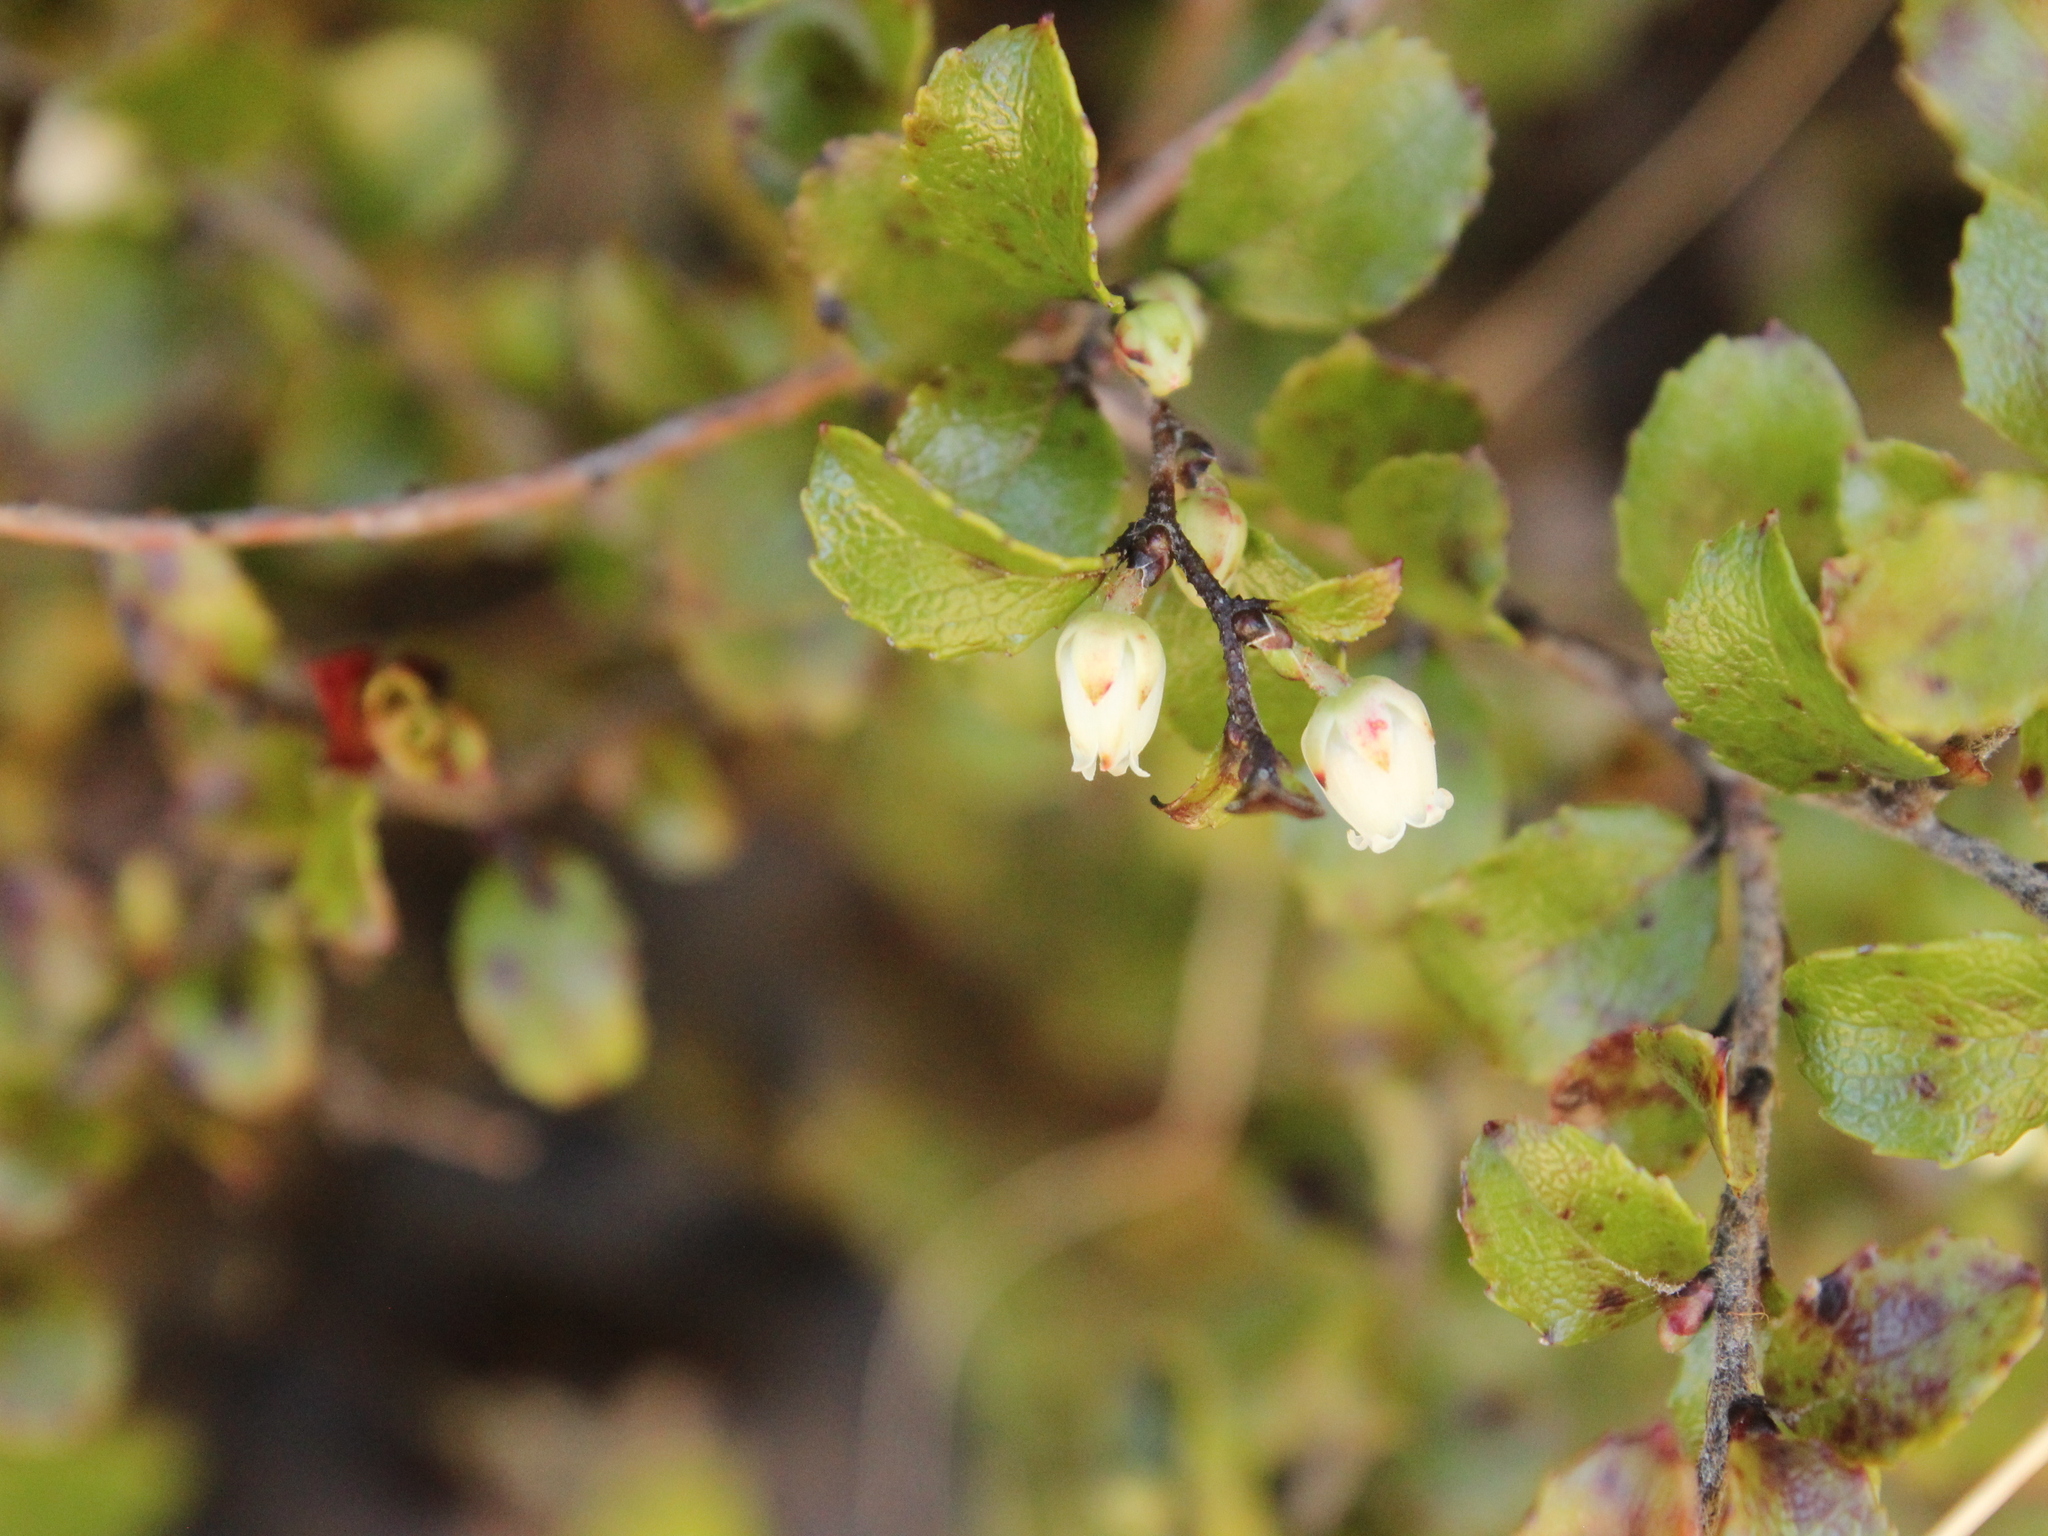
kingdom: Plantae
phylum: Tracheophyta
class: Magnoliopsida
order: Ericales
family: Ericaceae
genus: Gaultheria
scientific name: Gaultheria antipoda
